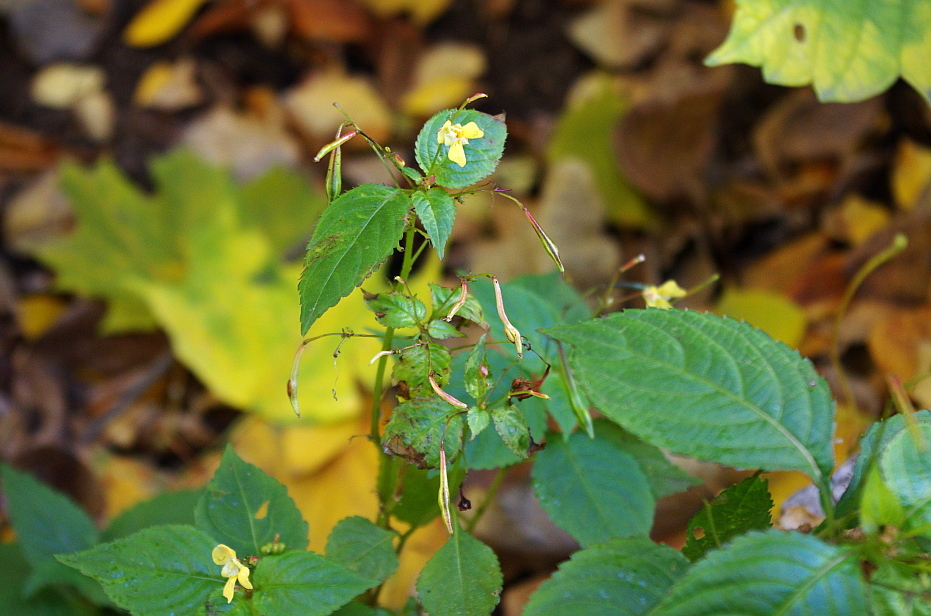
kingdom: Plantae
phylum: Tracheophyta
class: Magnoliopsida
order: Ericales
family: Balsaminaceae
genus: Impatiens
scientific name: Impatiens parviflora
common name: Small balsam
